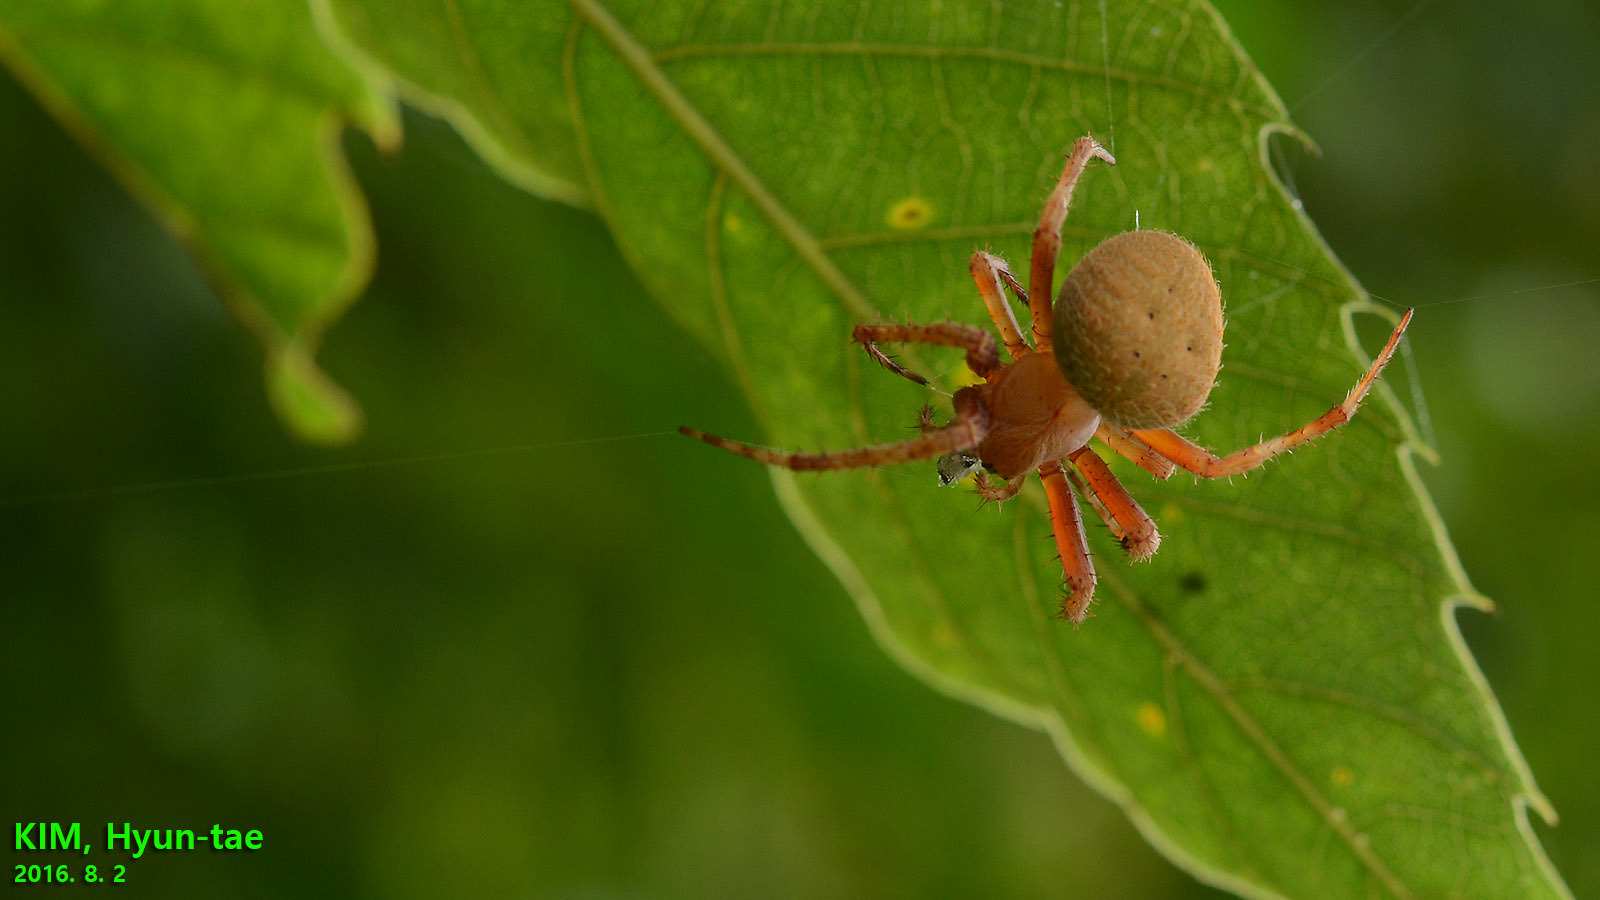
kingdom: Animalia
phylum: Arthropoda
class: Arachnida
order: Araneae
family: Araneidae
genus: Neoscona
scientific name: Neoscona punctigera
